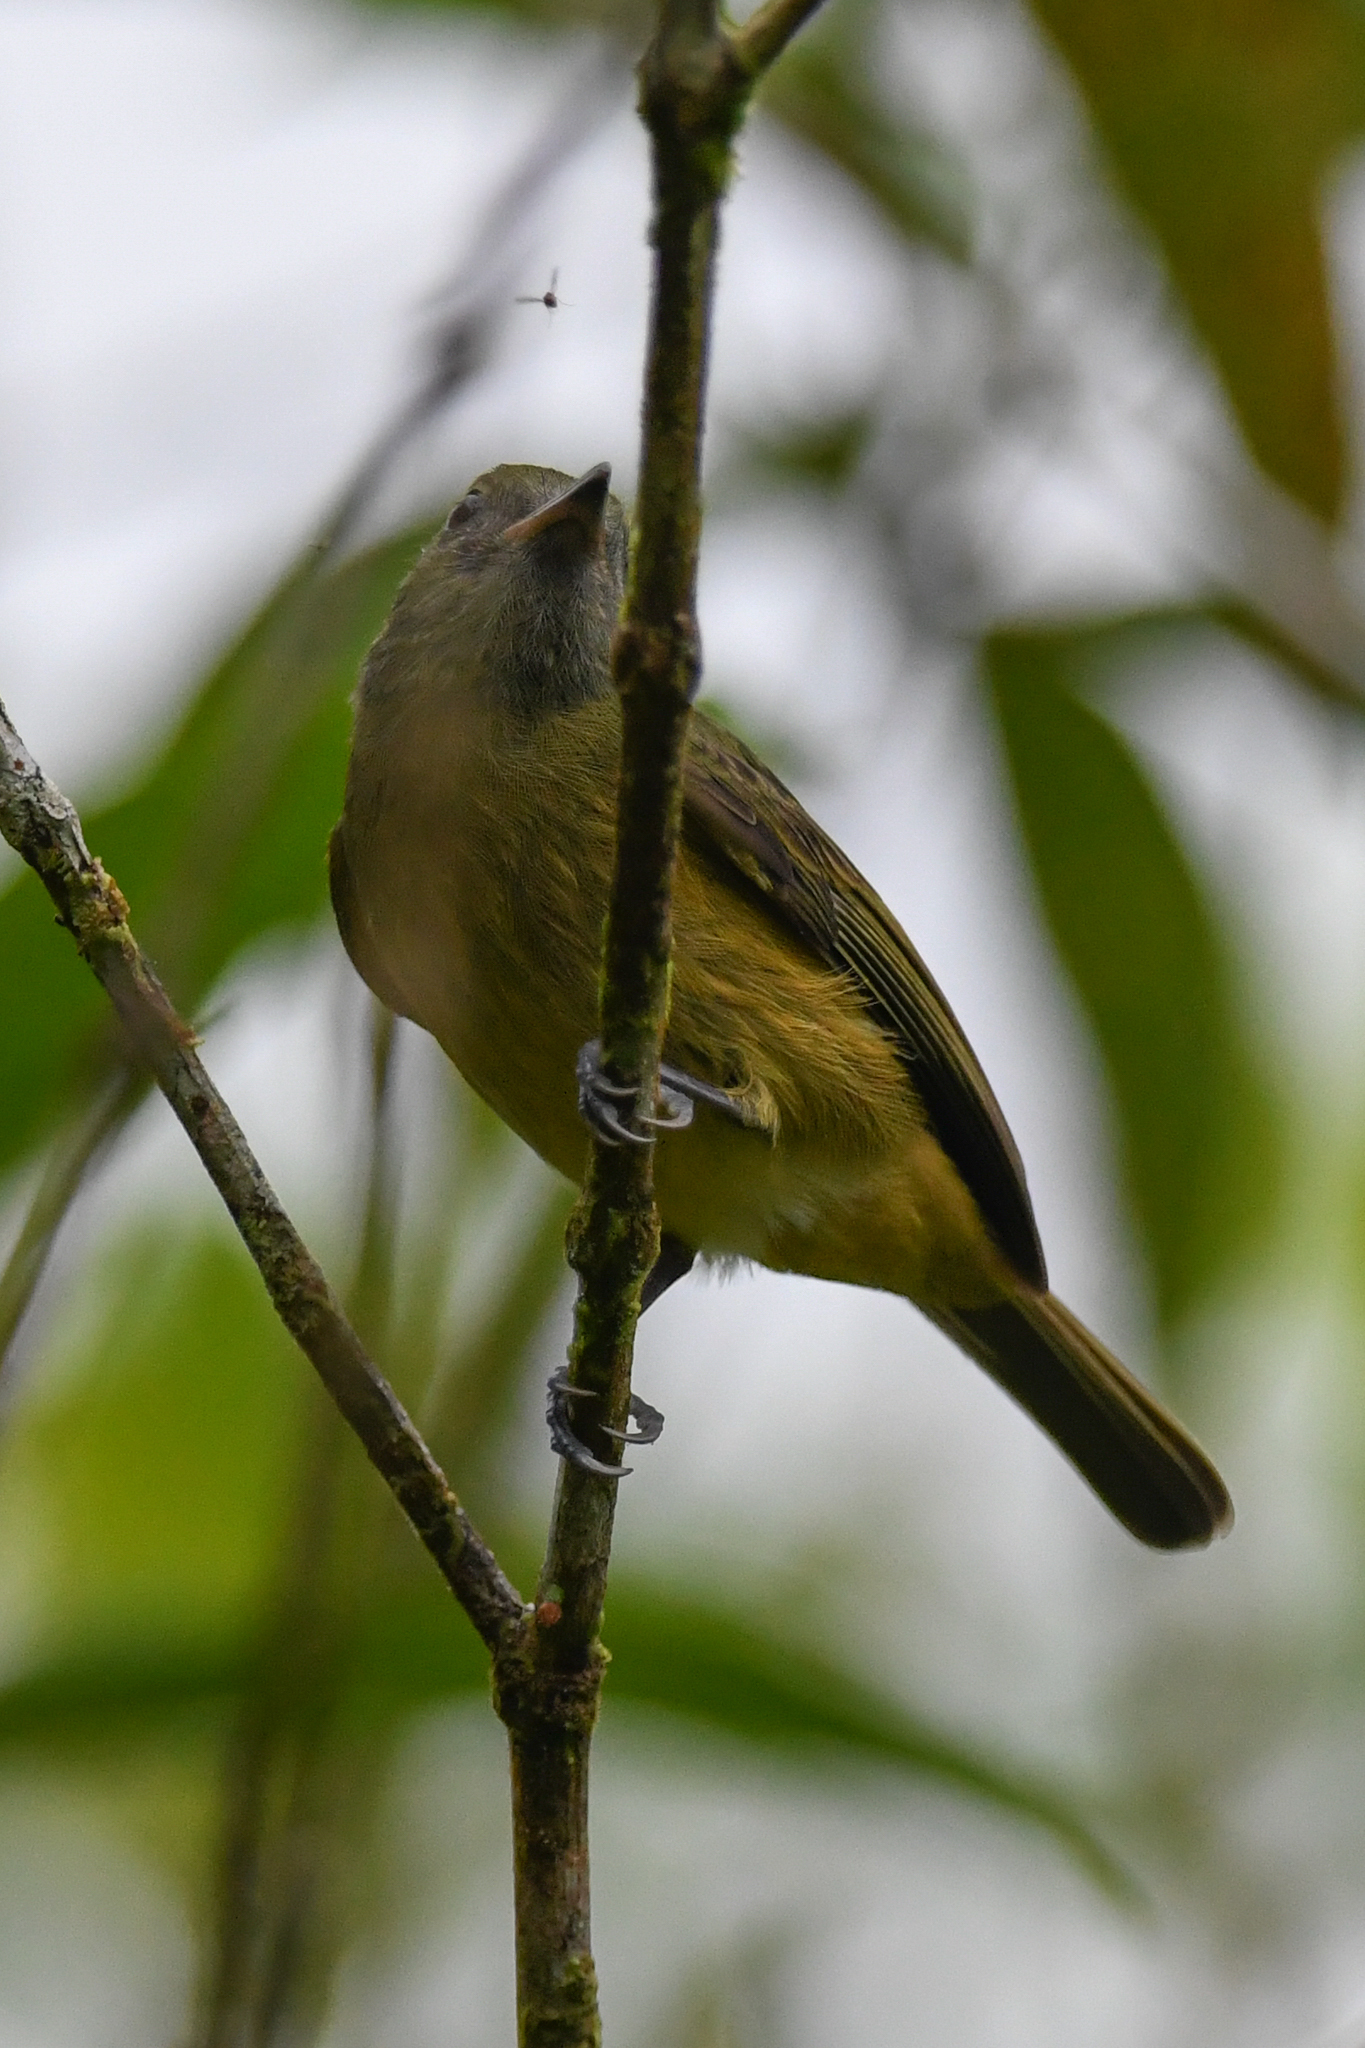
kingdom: Animalia
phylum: Chordata
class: Aves
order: Passeriformes
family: Tyrannidae
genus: Mionectes
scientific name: Mionectes oleagineus
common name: Ochre-bellied flycatcher
